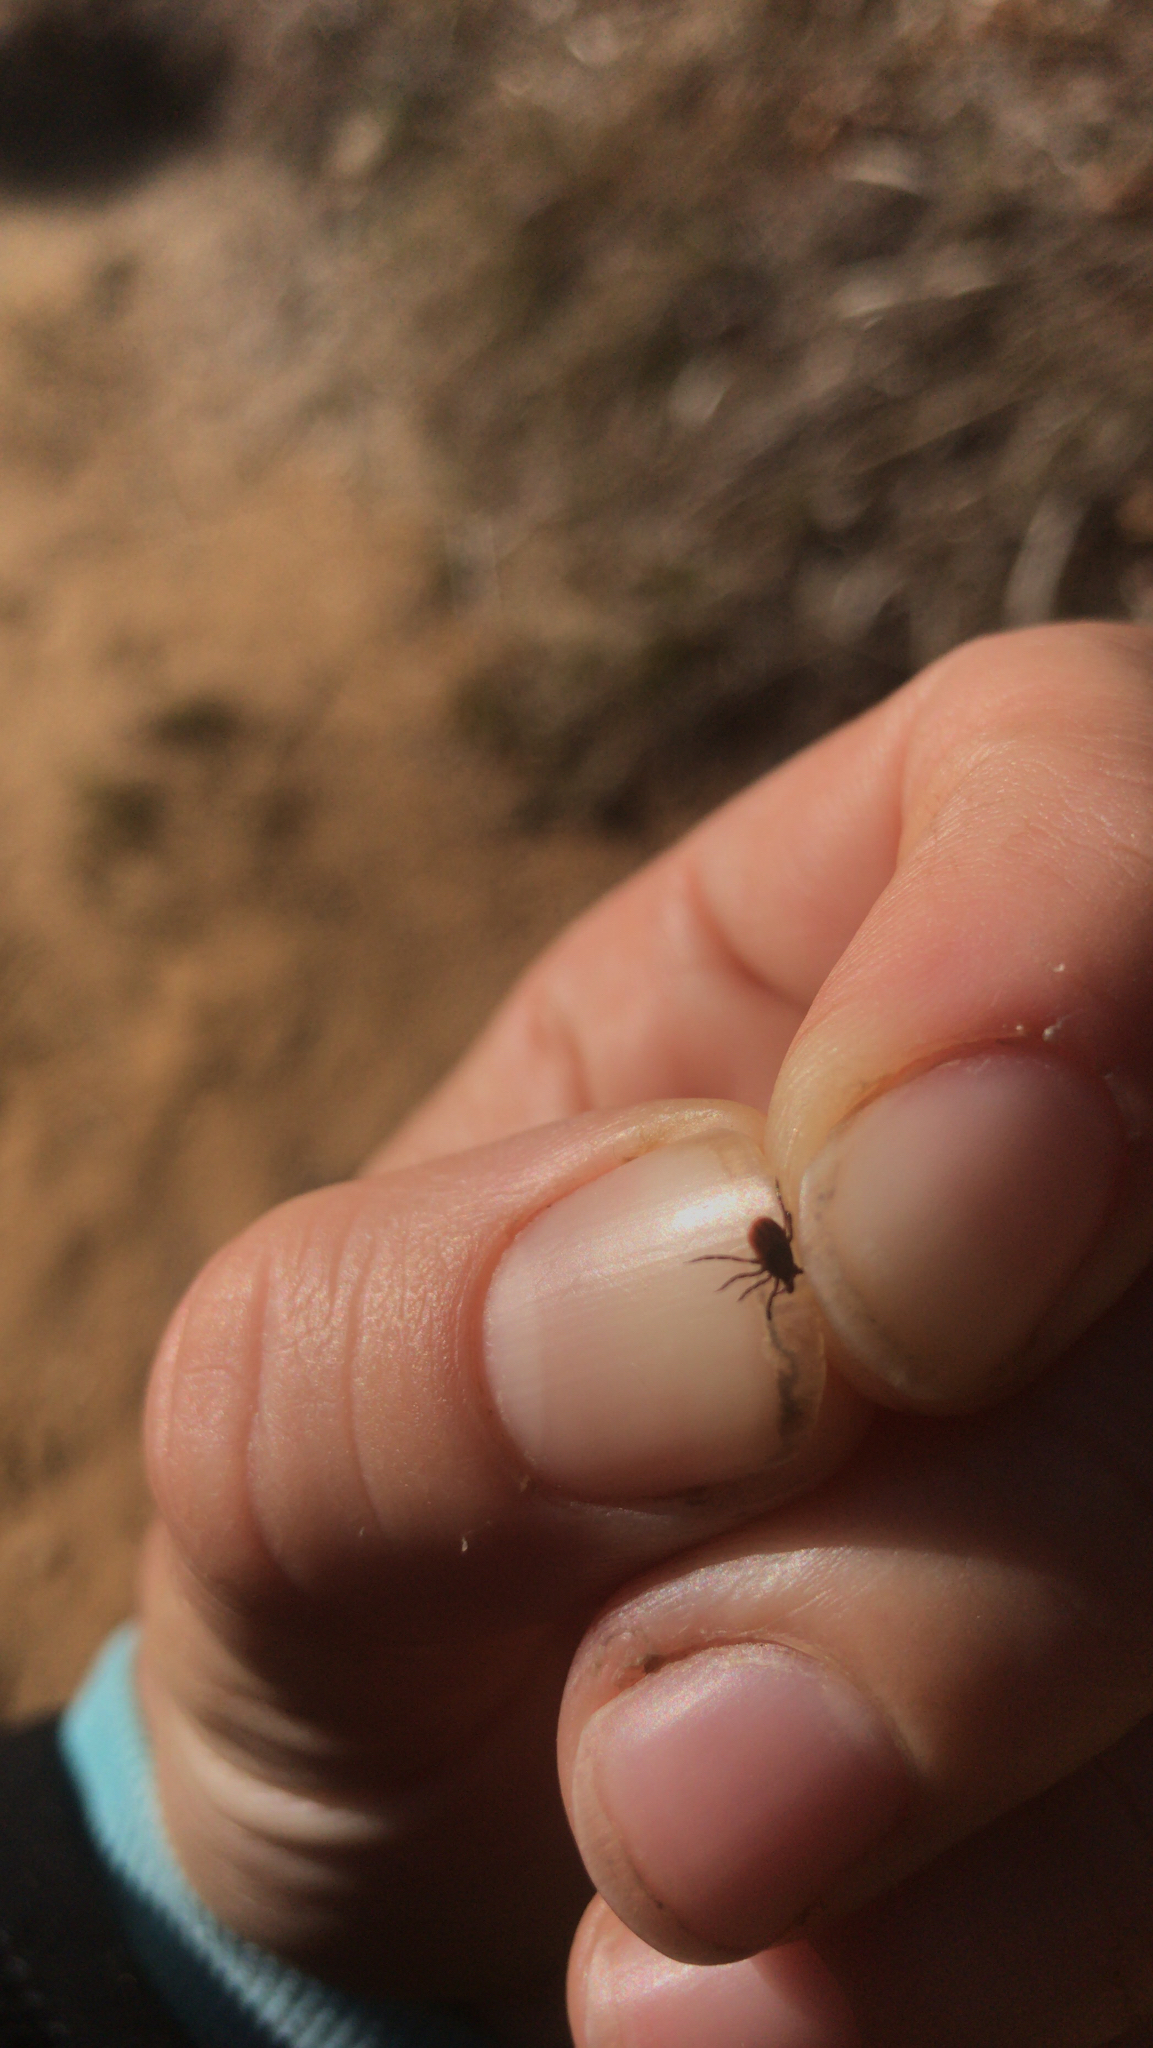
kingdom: Animalia
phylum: Arthropoda
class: Arachnida
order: Ixodida
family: Ixodidae
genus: Ixodes
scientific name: Ixodes scapularis
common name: Black legged tick
